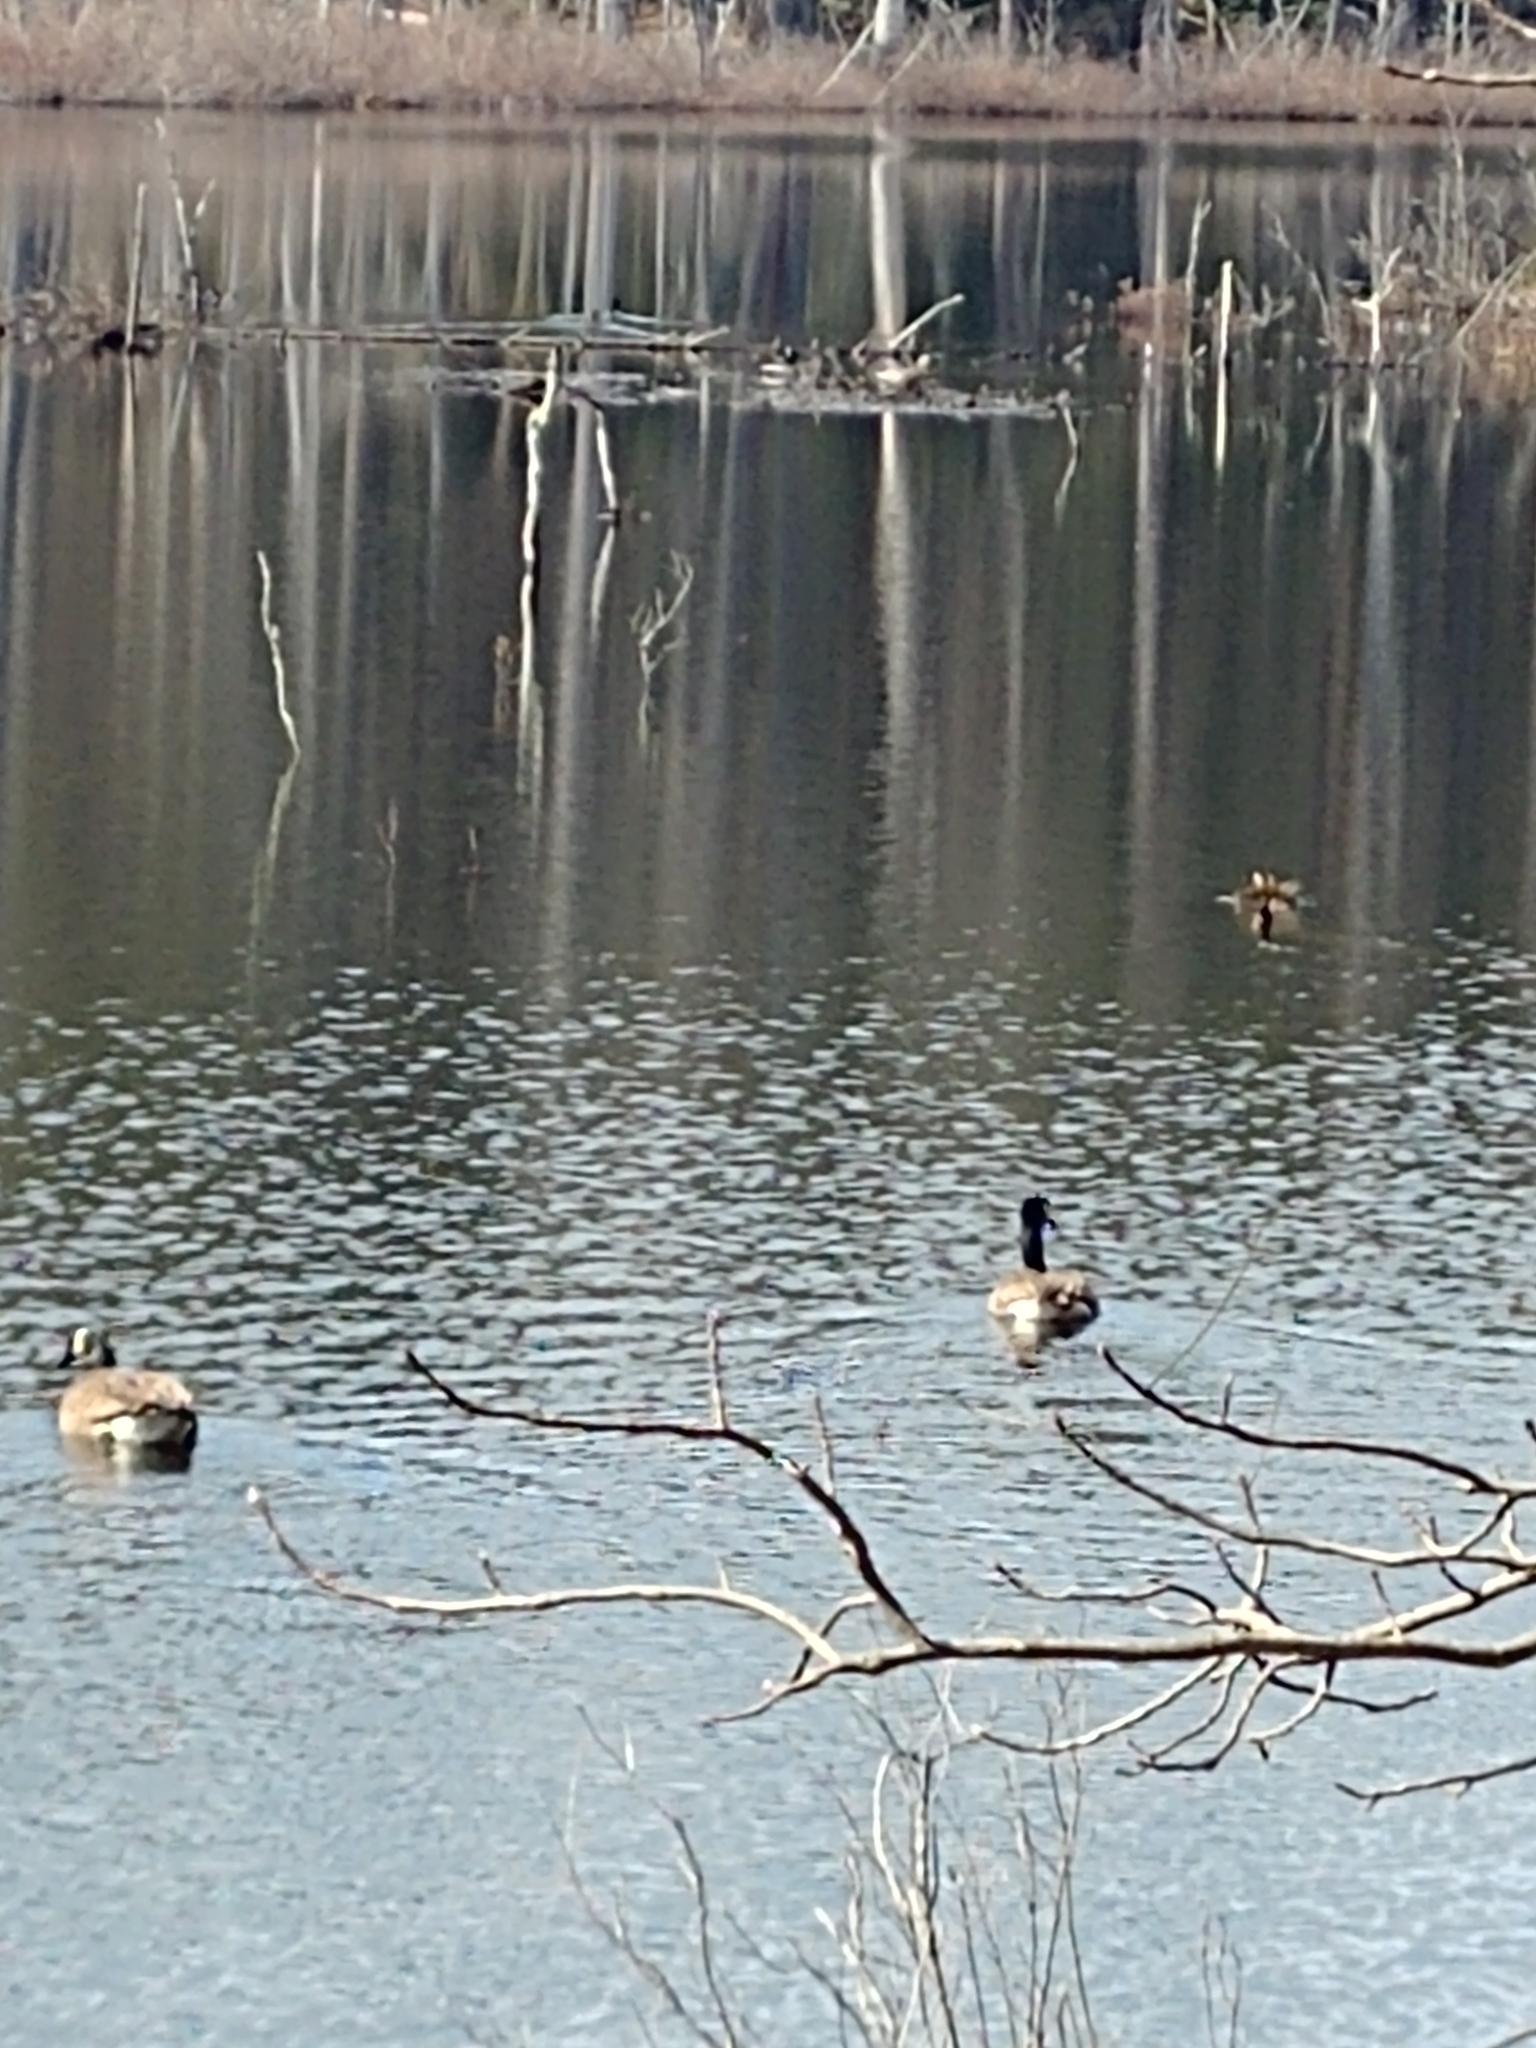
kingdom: Animalia
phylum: Chordata
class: Aves
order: Anseriformes
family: Anatidae
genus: Branta
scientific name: Branta canadensis
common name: Canada goose
